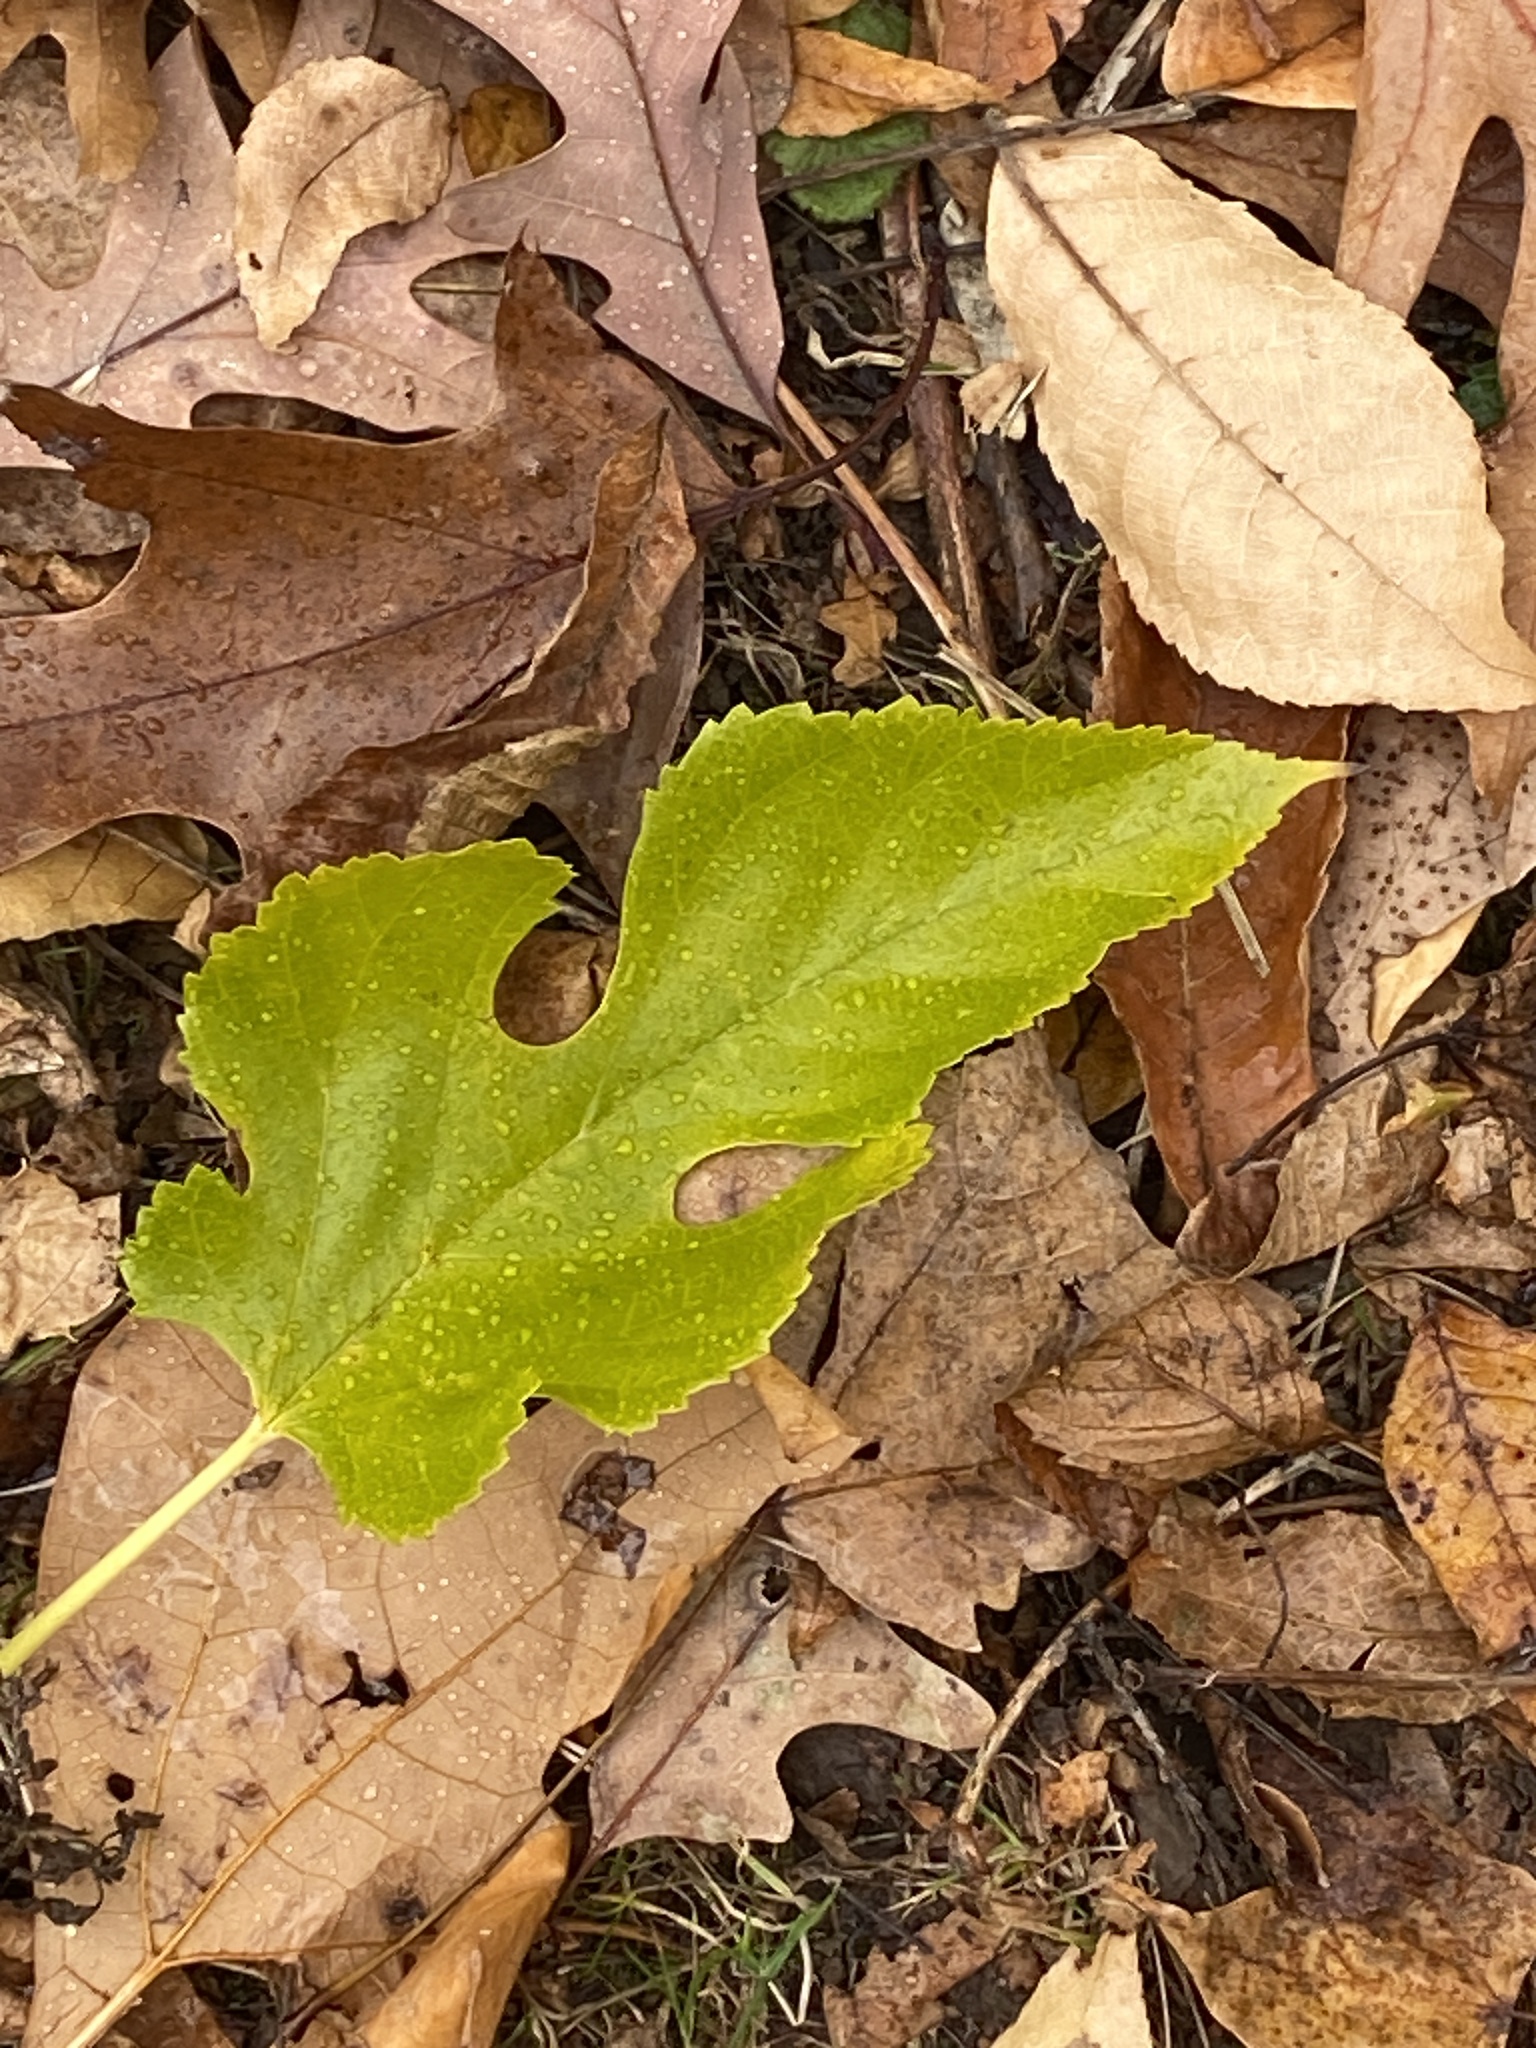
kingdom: Plantae
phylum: Tracheophyta
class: Magnoliopsida
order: Rosales
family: Moraceae
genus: Morus
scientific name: Morus alba
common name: White mulberry
